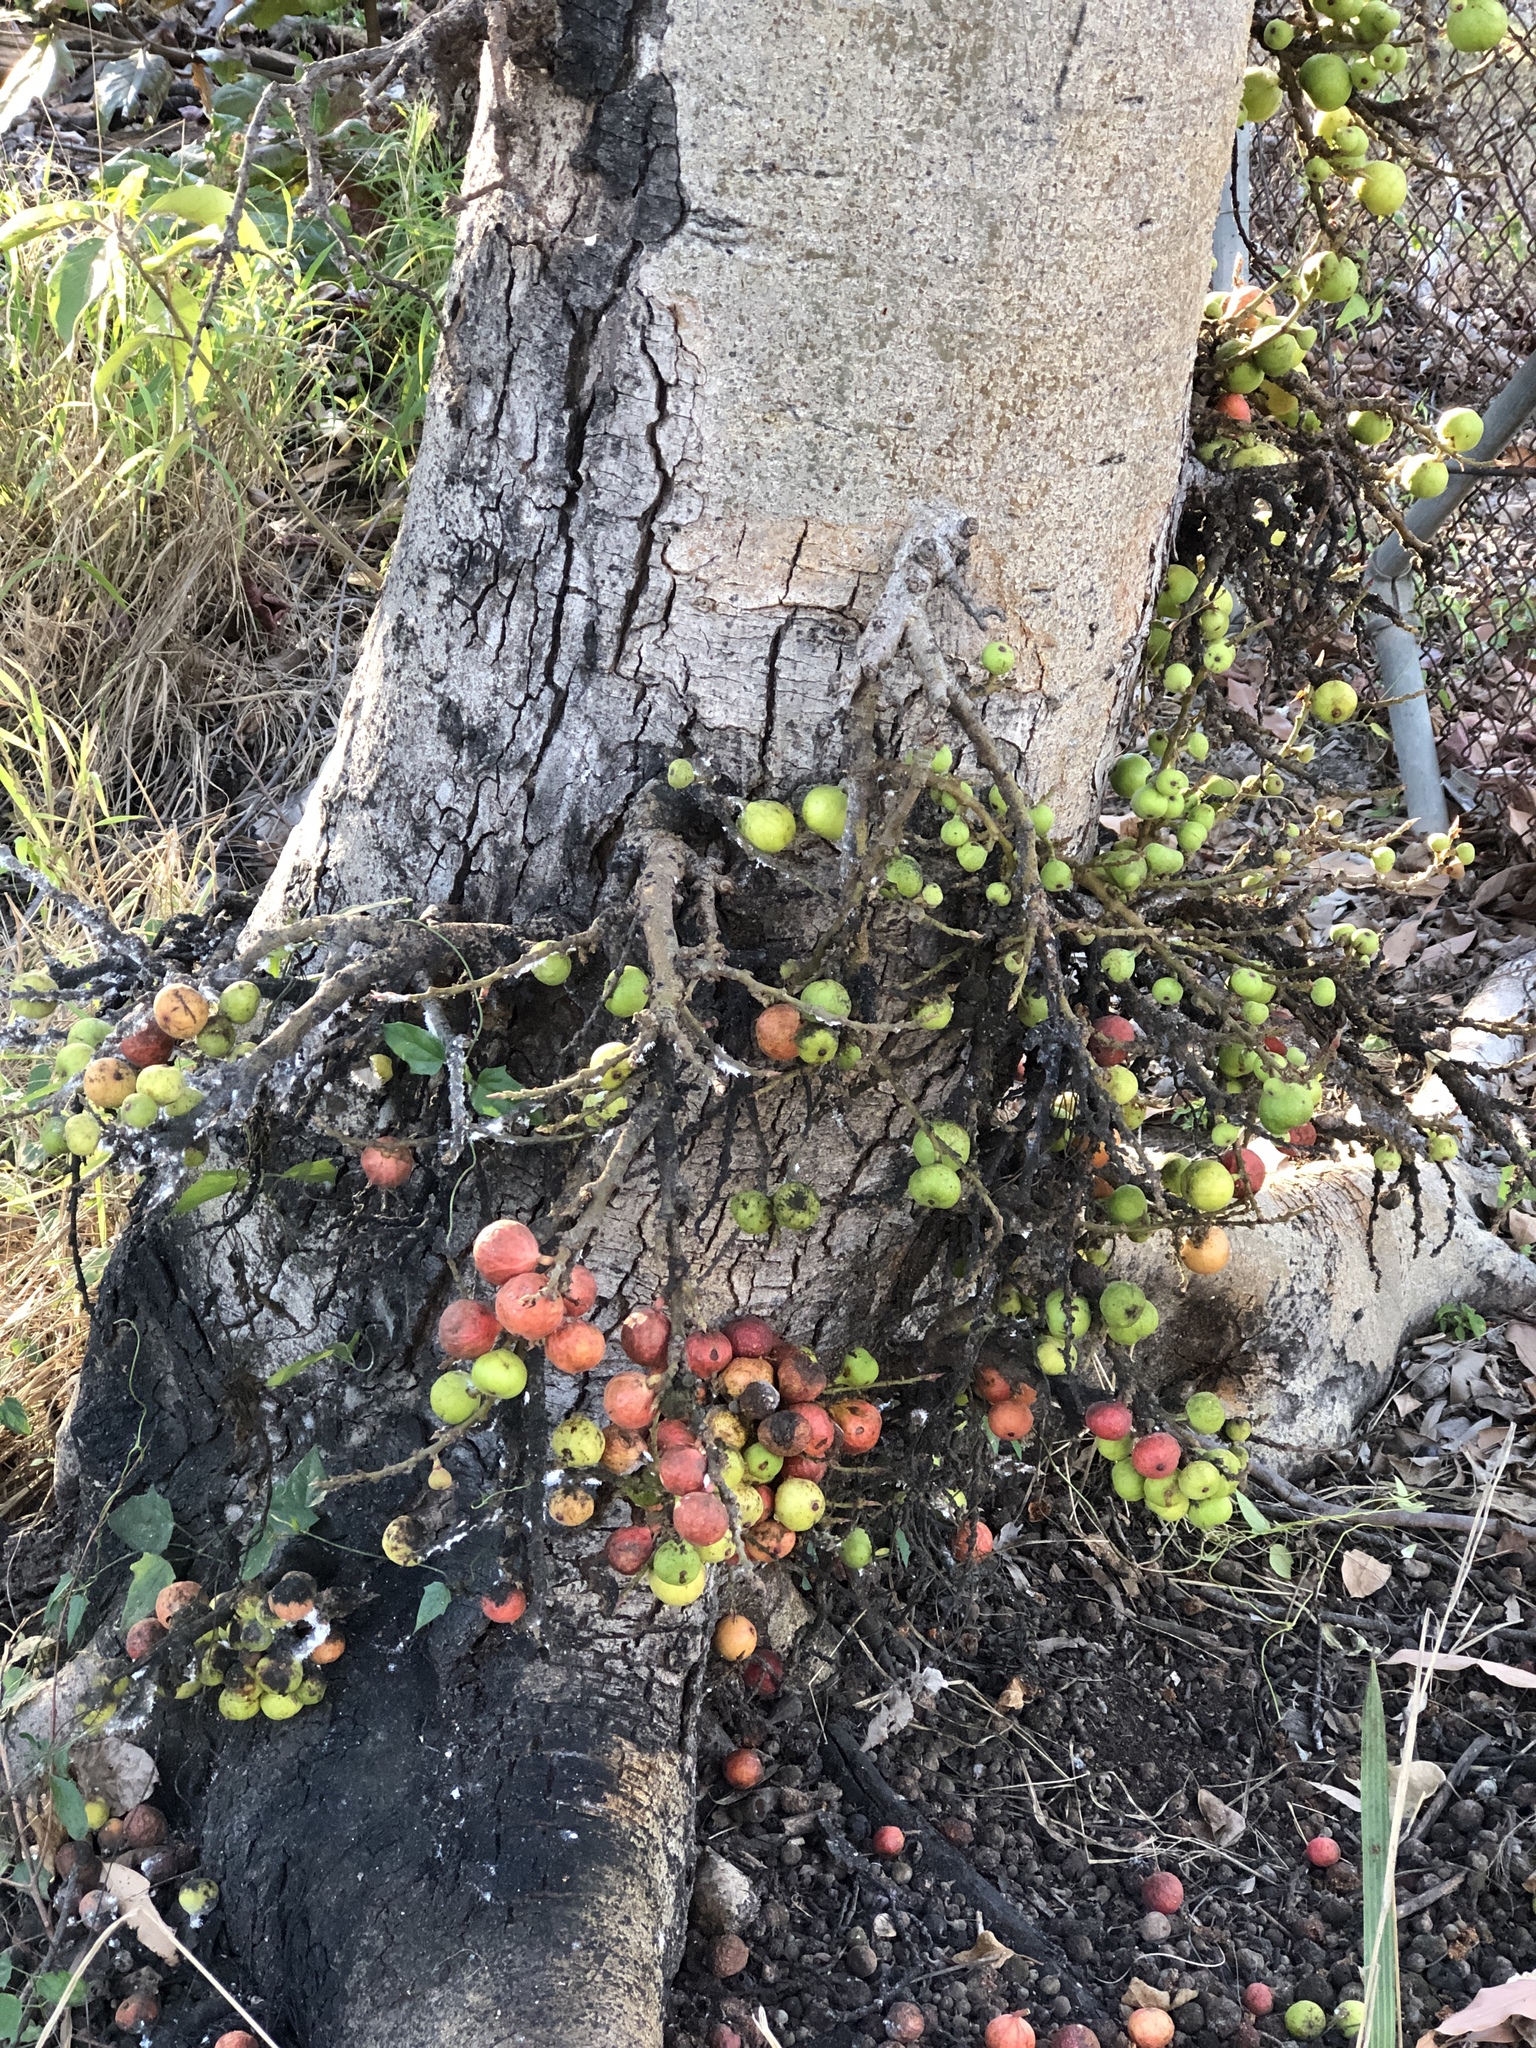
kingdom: Plantae
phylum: Tracheophyta
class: Magnoliopsida
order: Rosales
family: Moraceae
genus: Ficus
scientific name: Ficus racemosa
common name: Cluster fig
